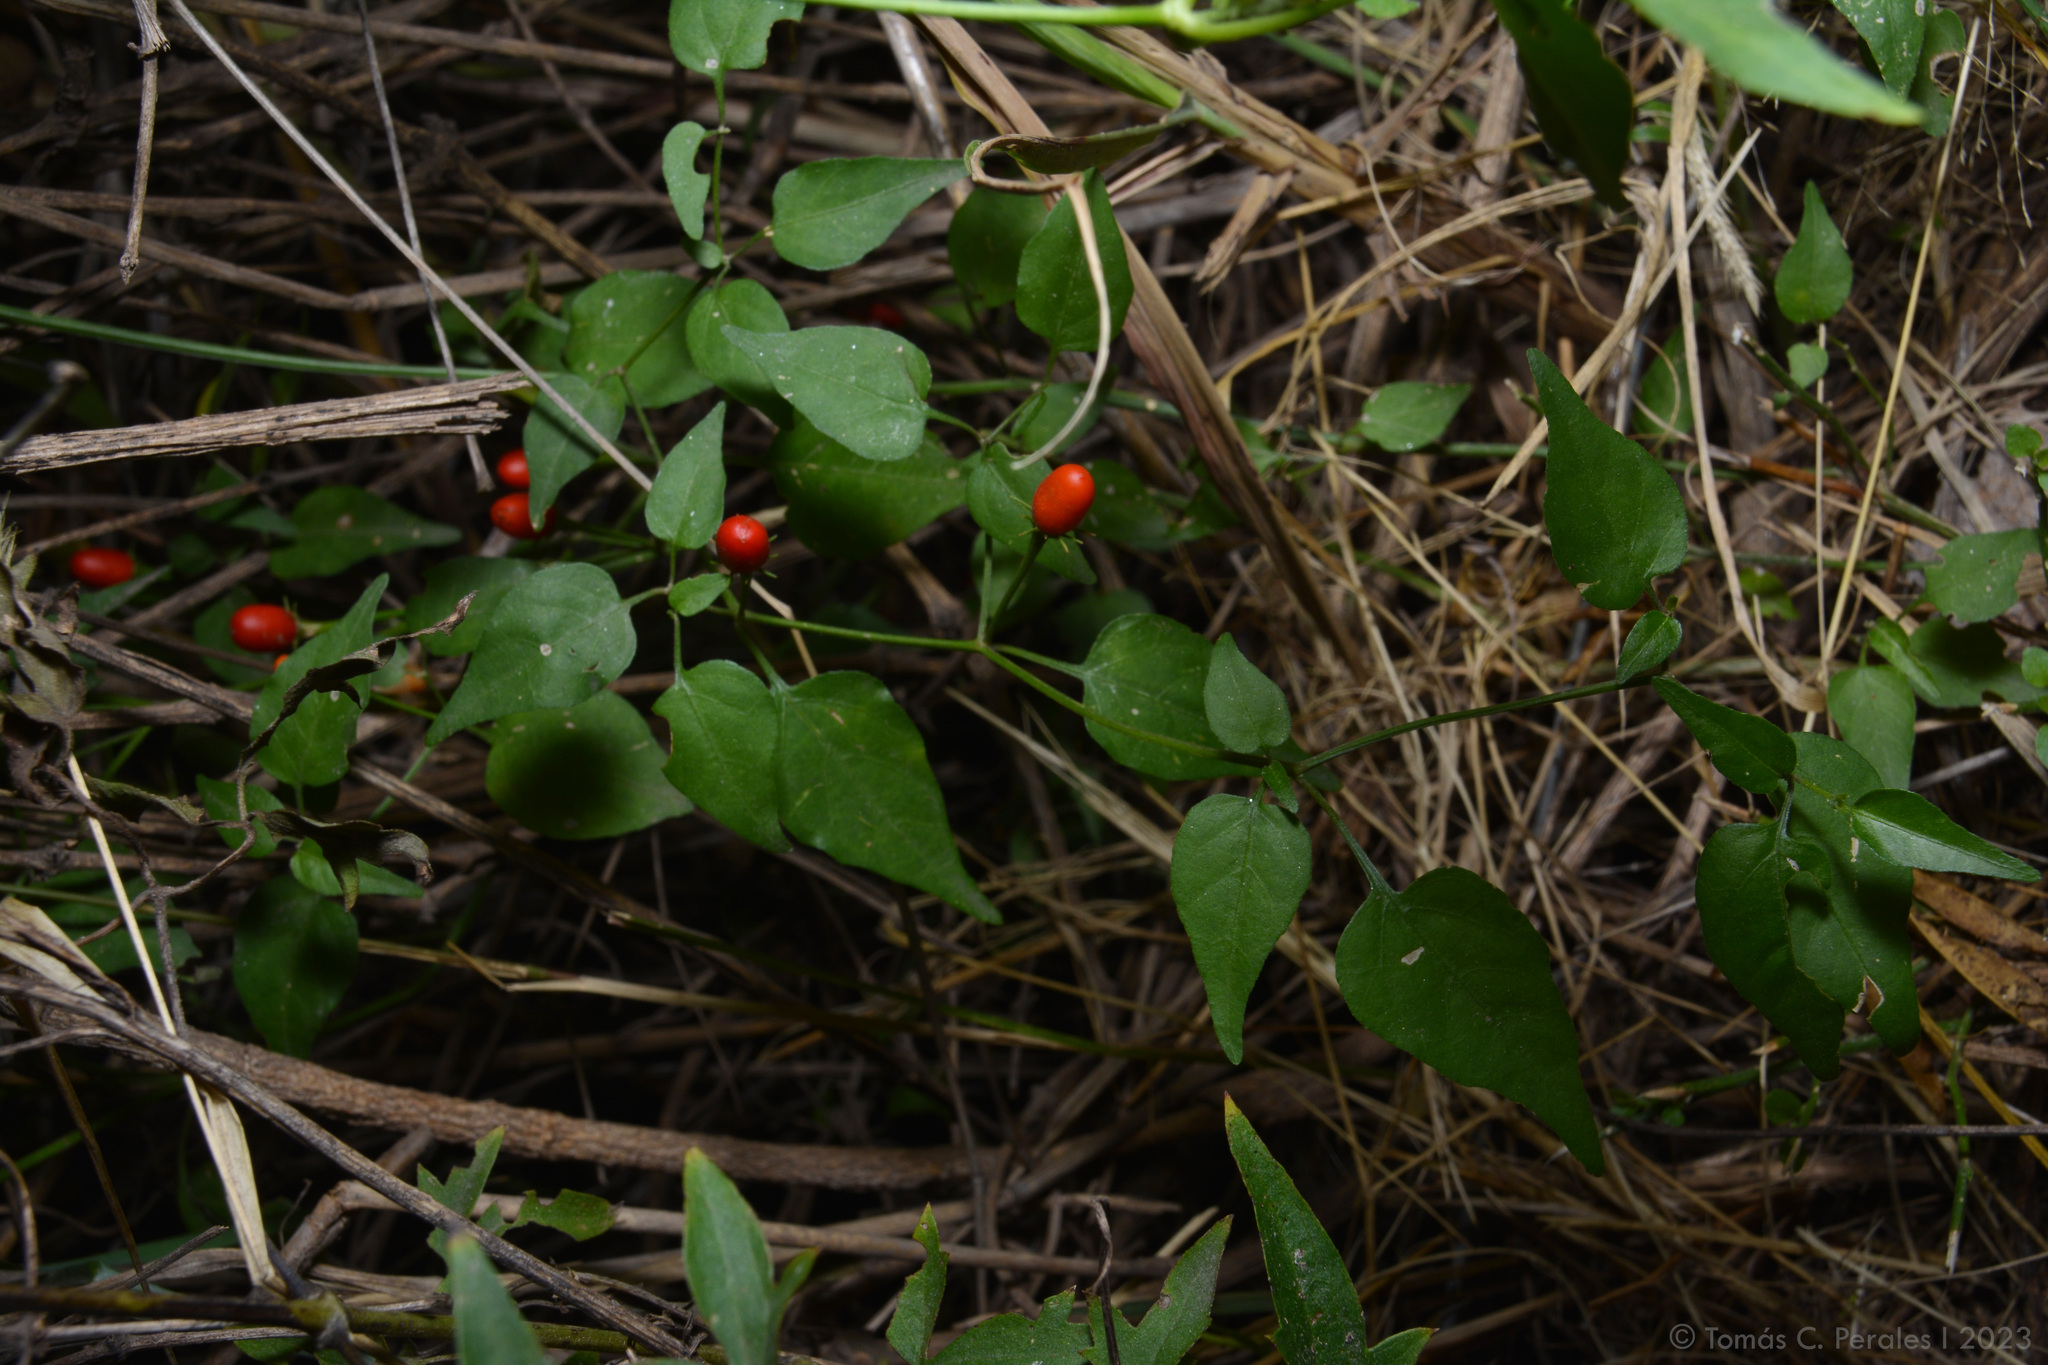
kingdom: Plantae
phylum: Tracheophyta
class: Magnoliopsida
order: Solanales
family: Solanaceae
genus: Capsicum
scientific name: Capsicum chacoense
